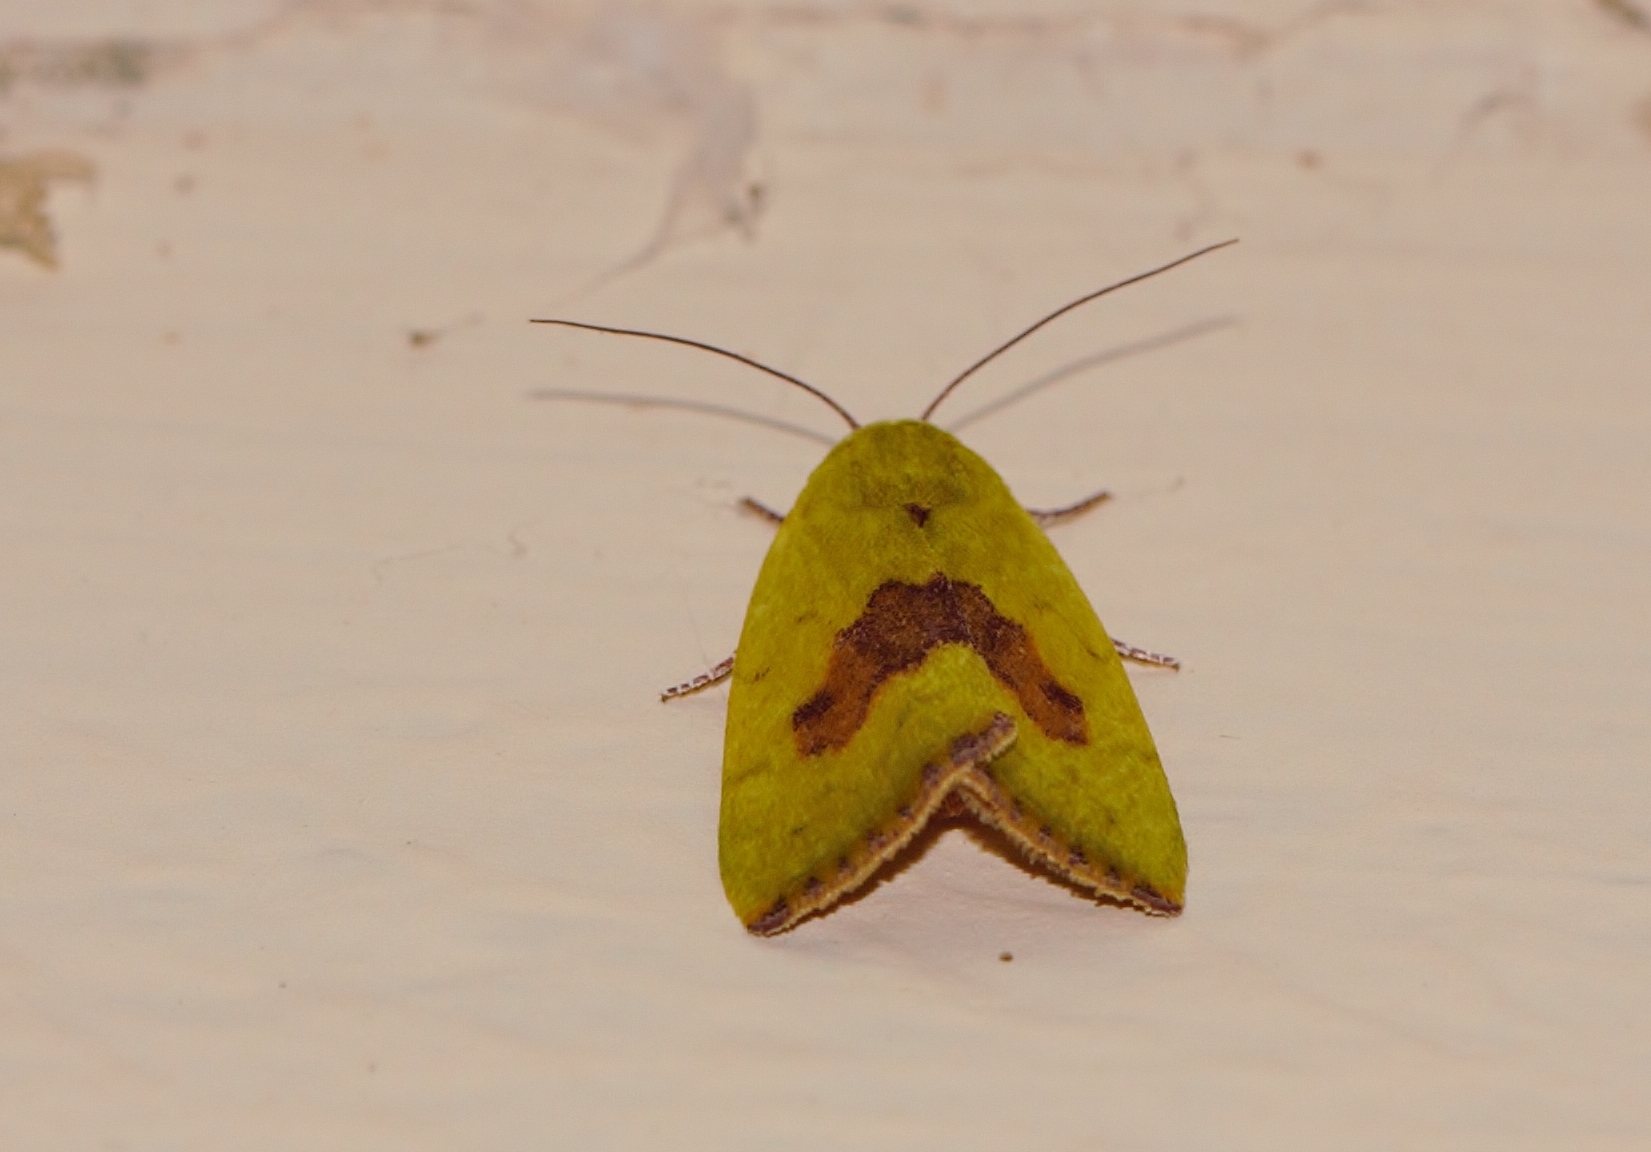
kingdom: Animalia
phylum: Arthropoda
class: Insecta
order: Lepidoptera
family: Nolidae
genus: Earias
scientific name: Earias biplaga
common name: Spiny bollworm
